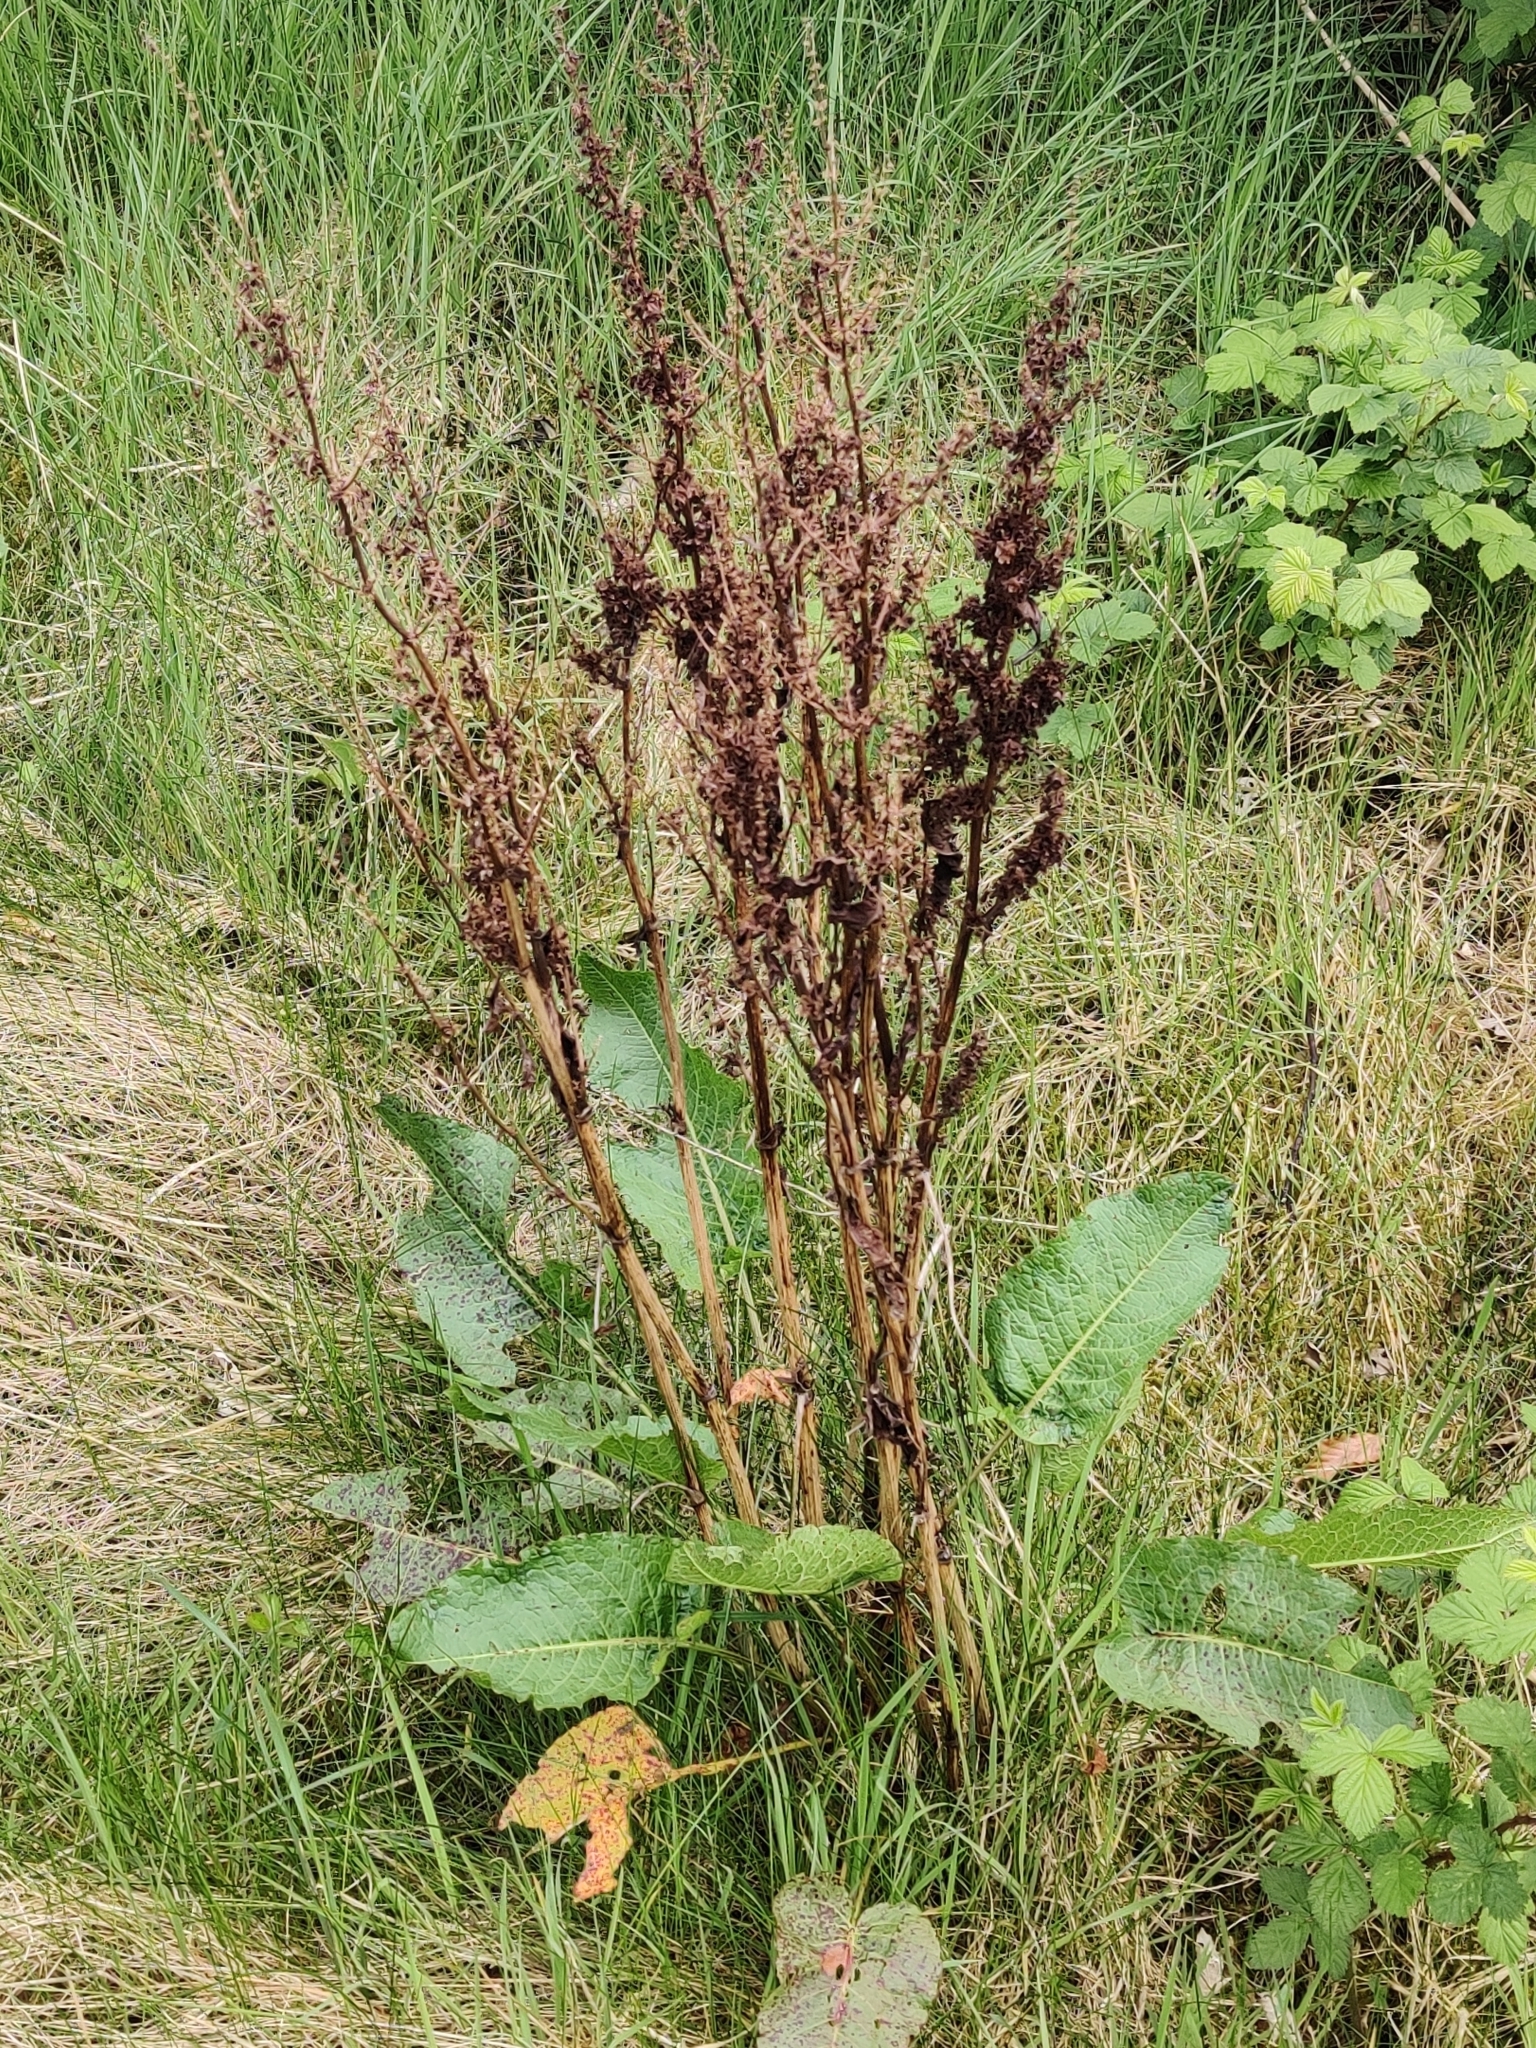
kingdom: Plantae
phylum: Tracheophyta
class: Magnoliopsida
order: Caryophyllales
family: Polygonaceae
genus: Rumex
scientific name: Rumex obtusifolius
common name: Bitter dock
